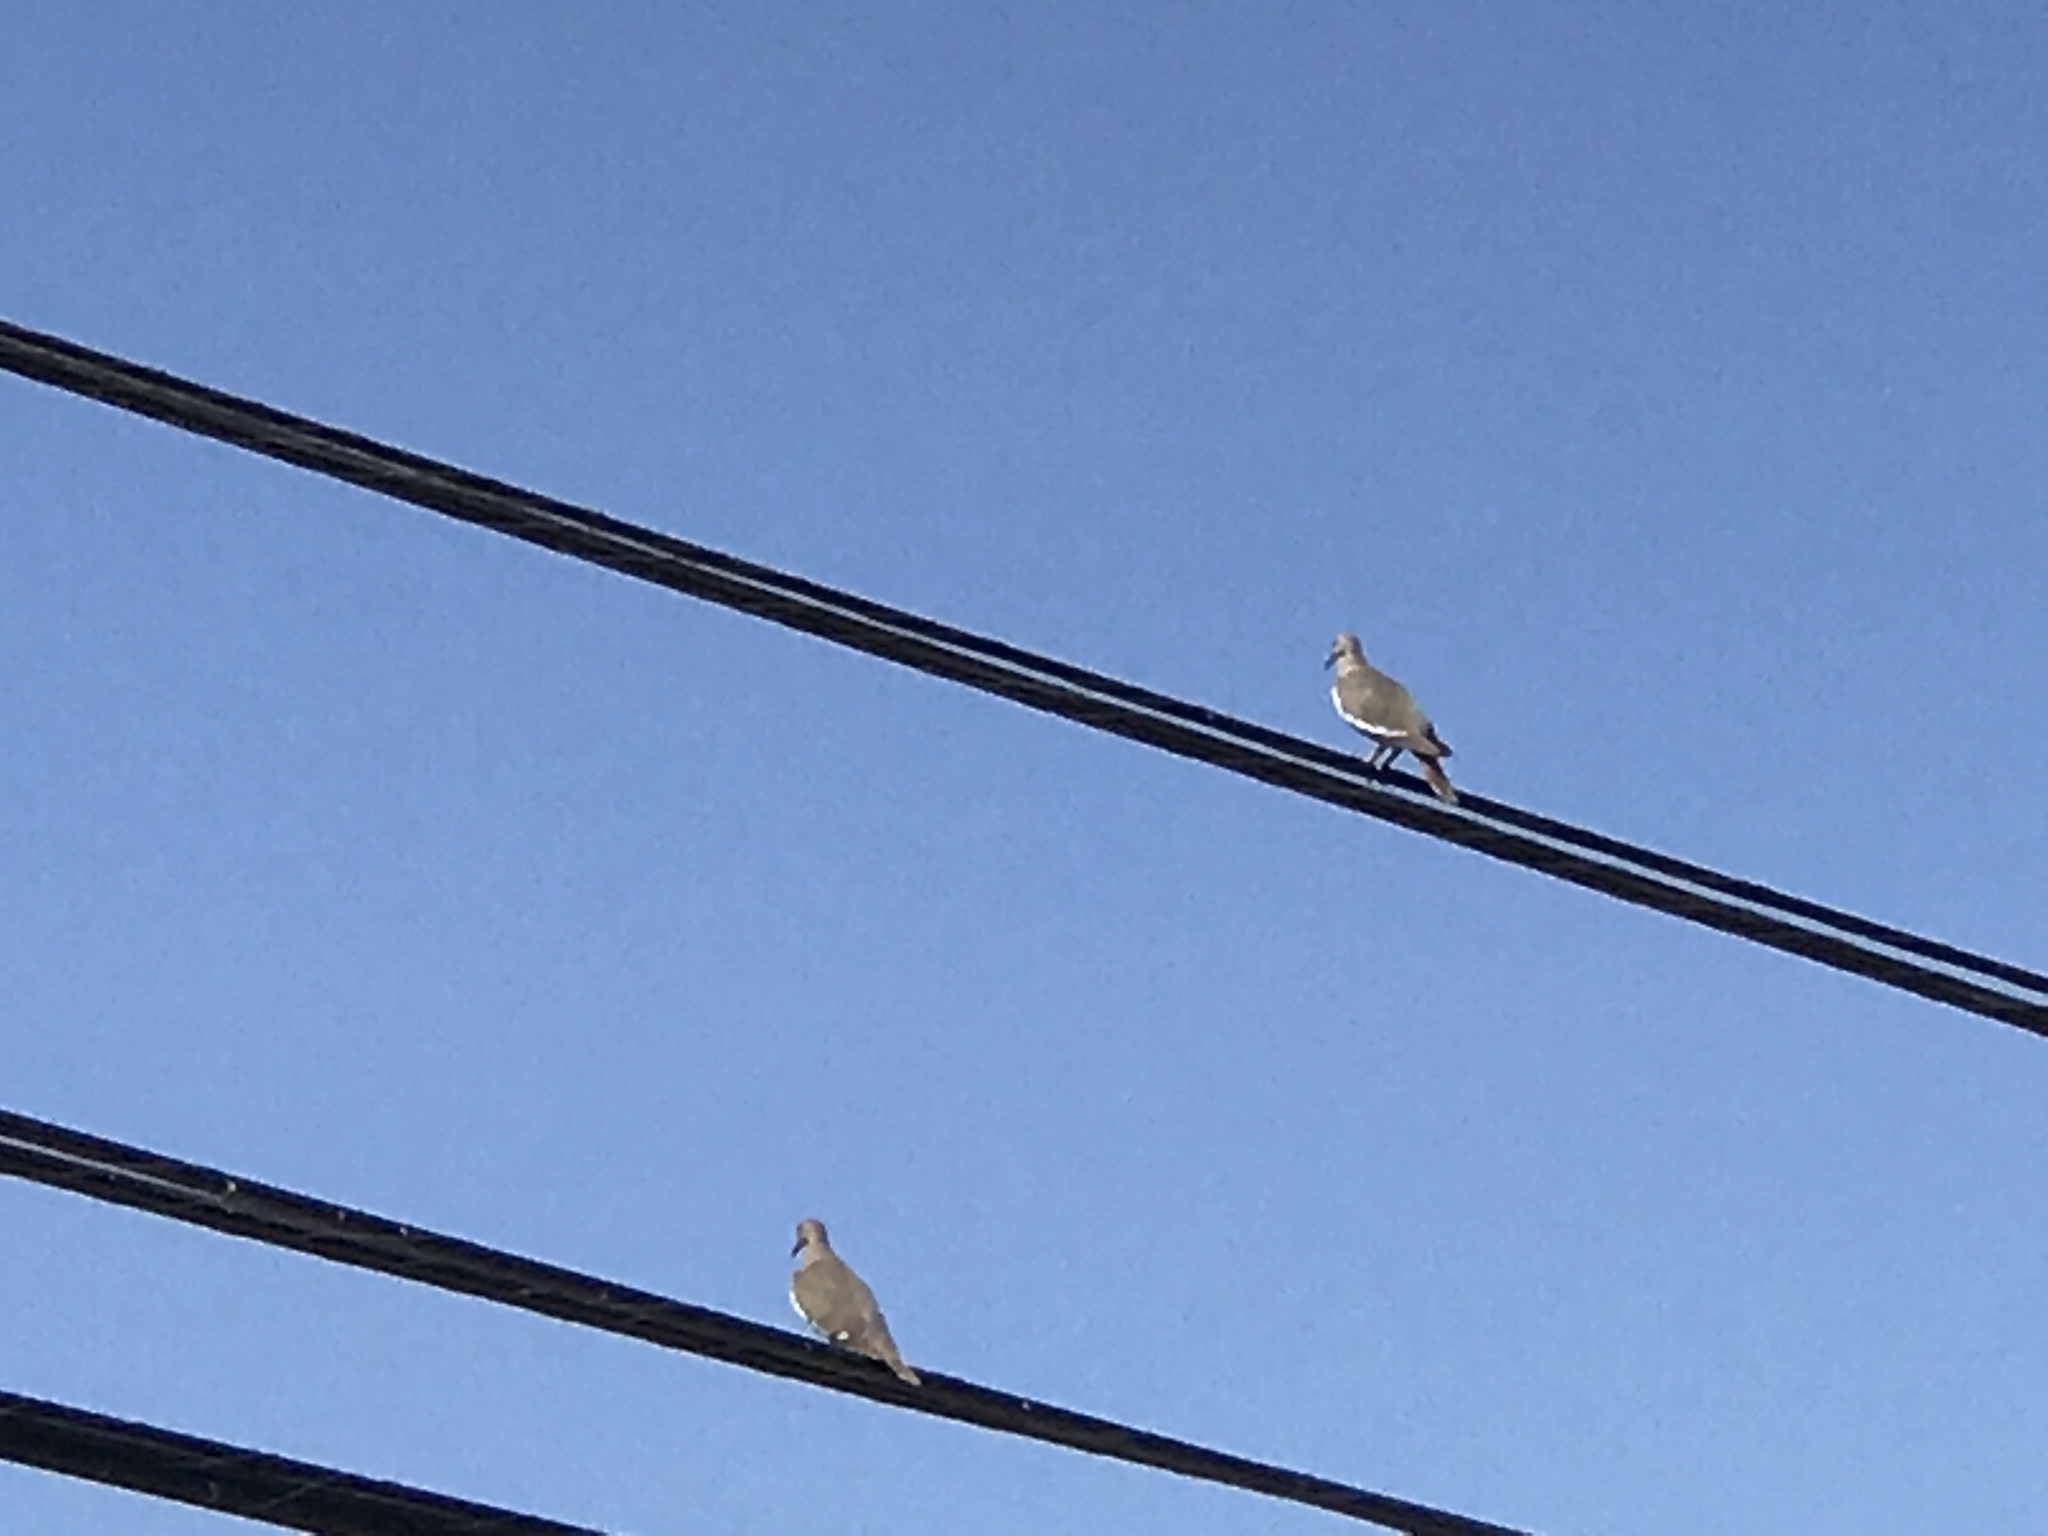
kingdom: Animalia
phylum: Chordata
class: Aves
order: Columbiformes
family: Columbidae
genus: Zenaida
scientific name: Zenaida asiatica
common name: White-winged dove
